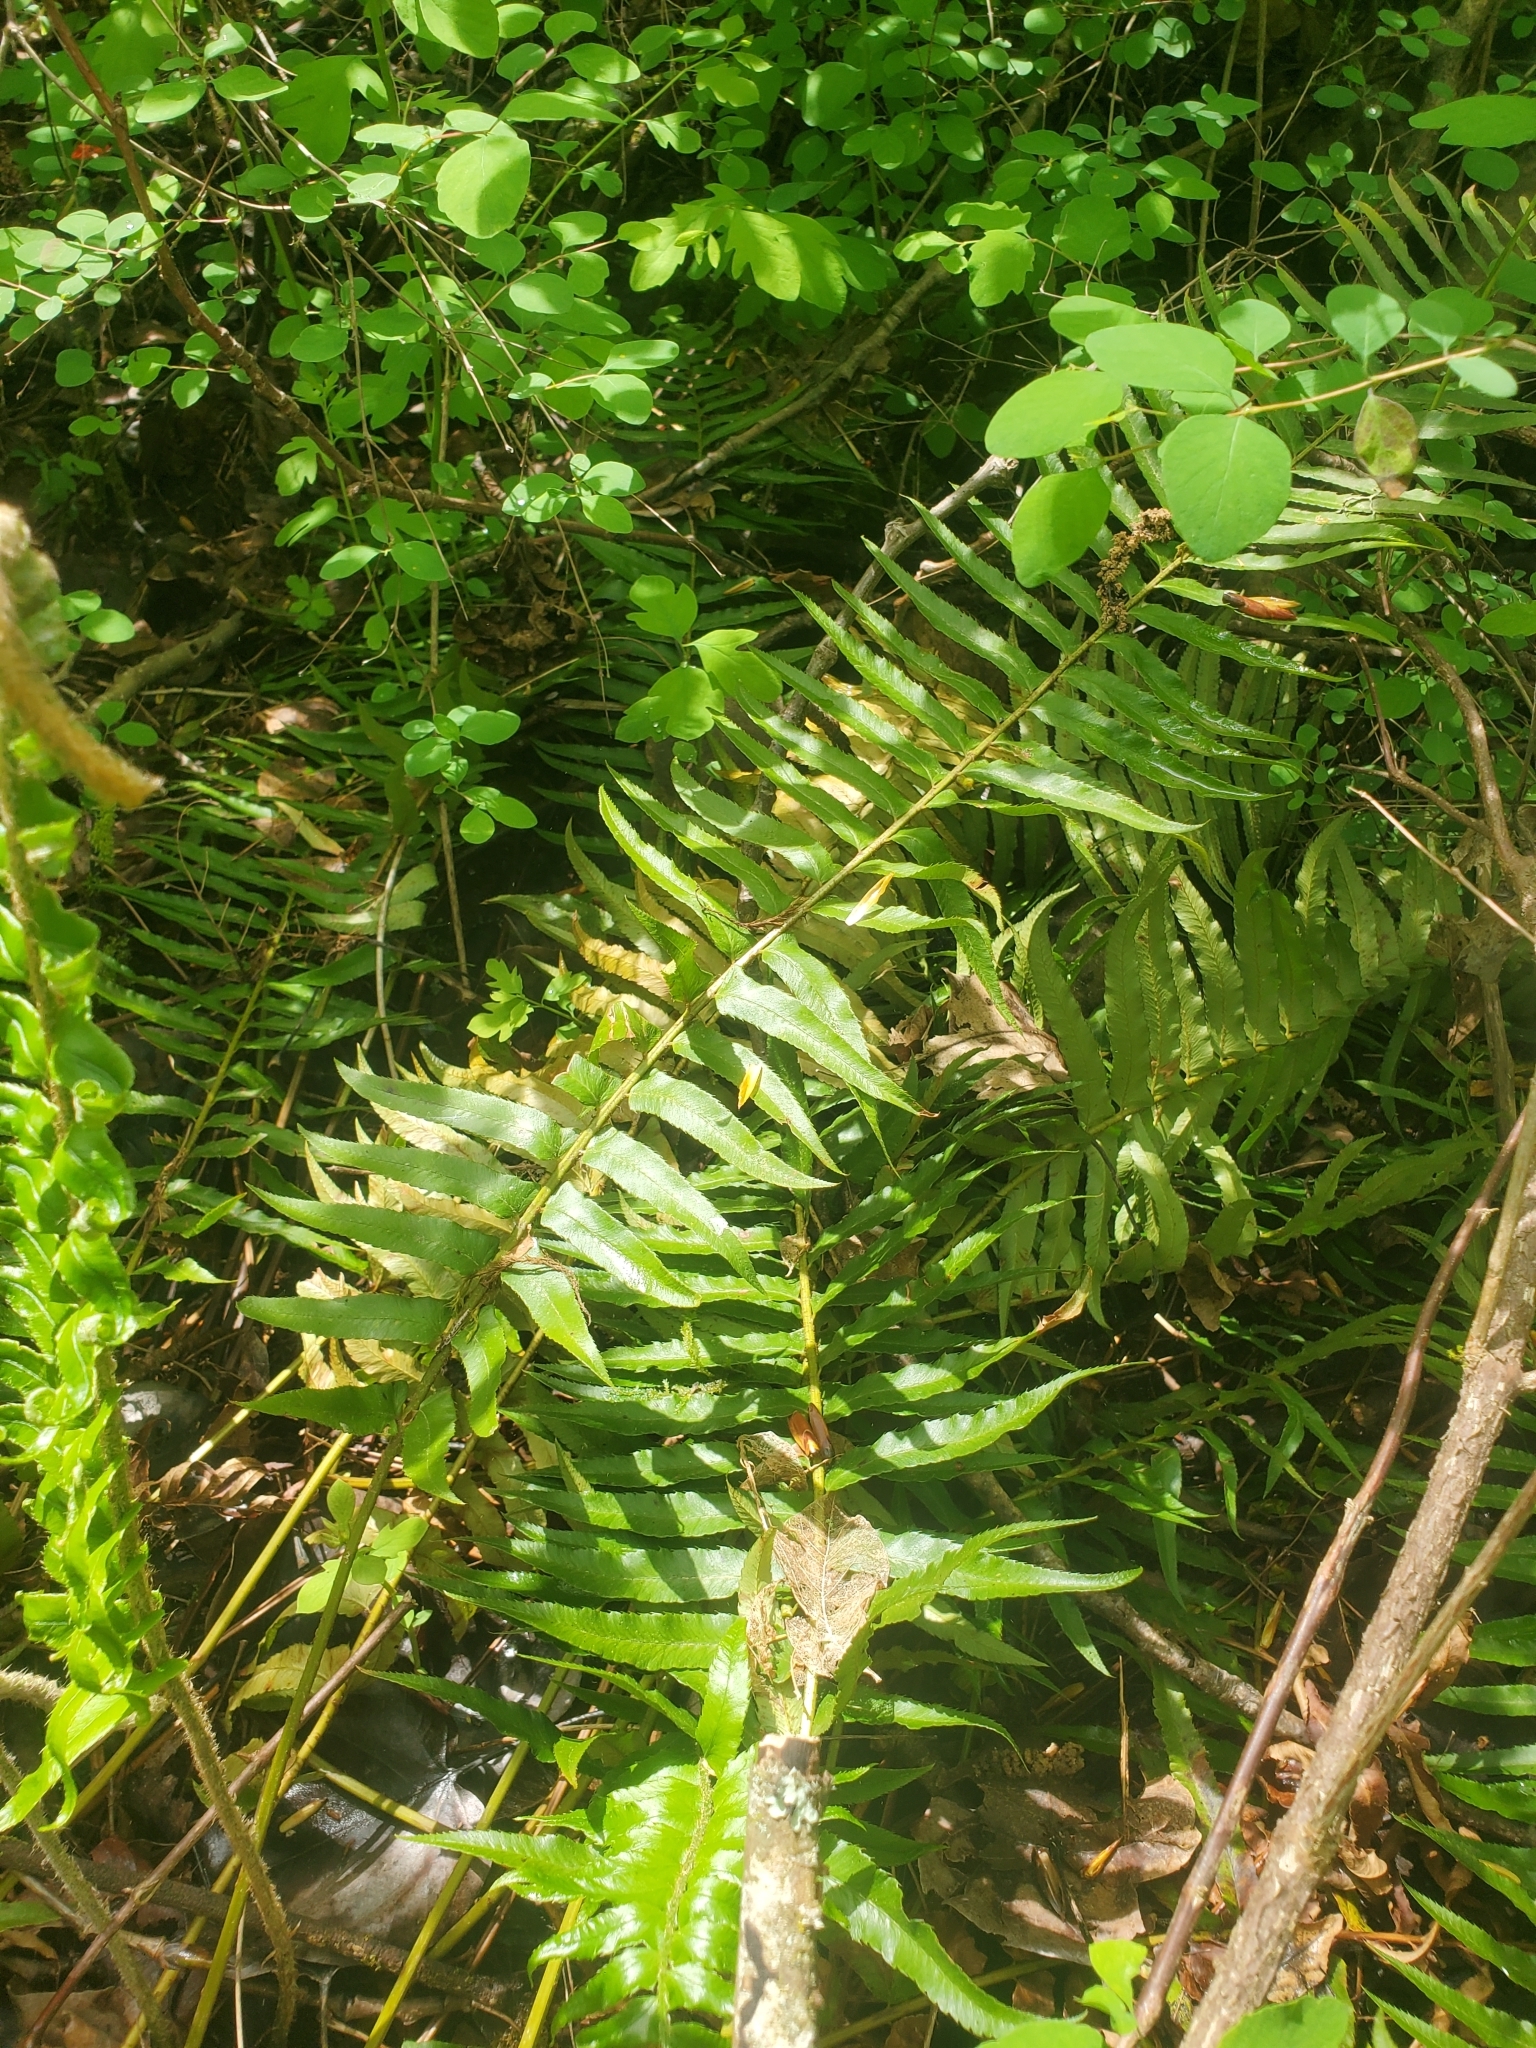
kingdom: Plantae
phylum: Tracheophyta
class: Polypodiopsida
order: Polypodiales
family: Dryopteridaceae
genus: Polystichum
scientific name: Polystichum munitum
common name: Western sword-fern
